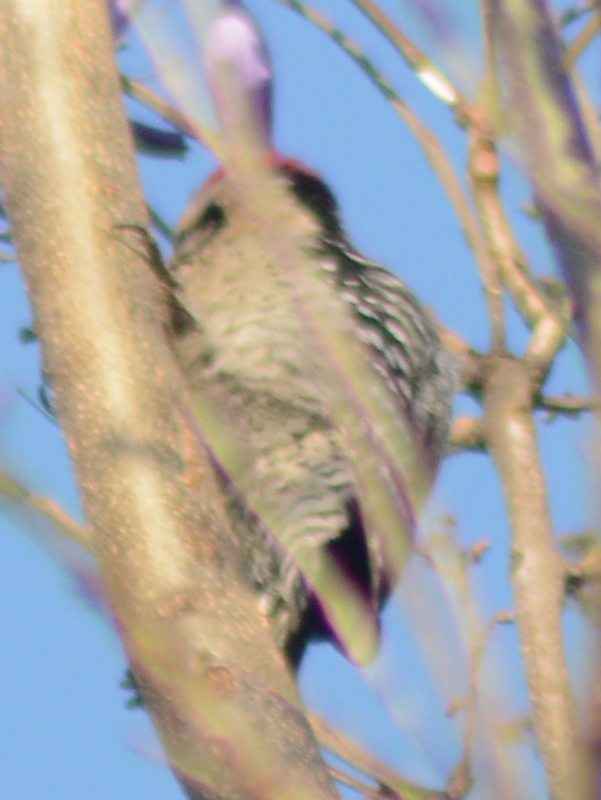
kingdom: Animalia
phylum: Chordata
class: Aves
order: Piciformes
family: Picidae
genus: Dryobates
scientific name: Dryobates scalaris
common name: Ladder-backed woodpecker
